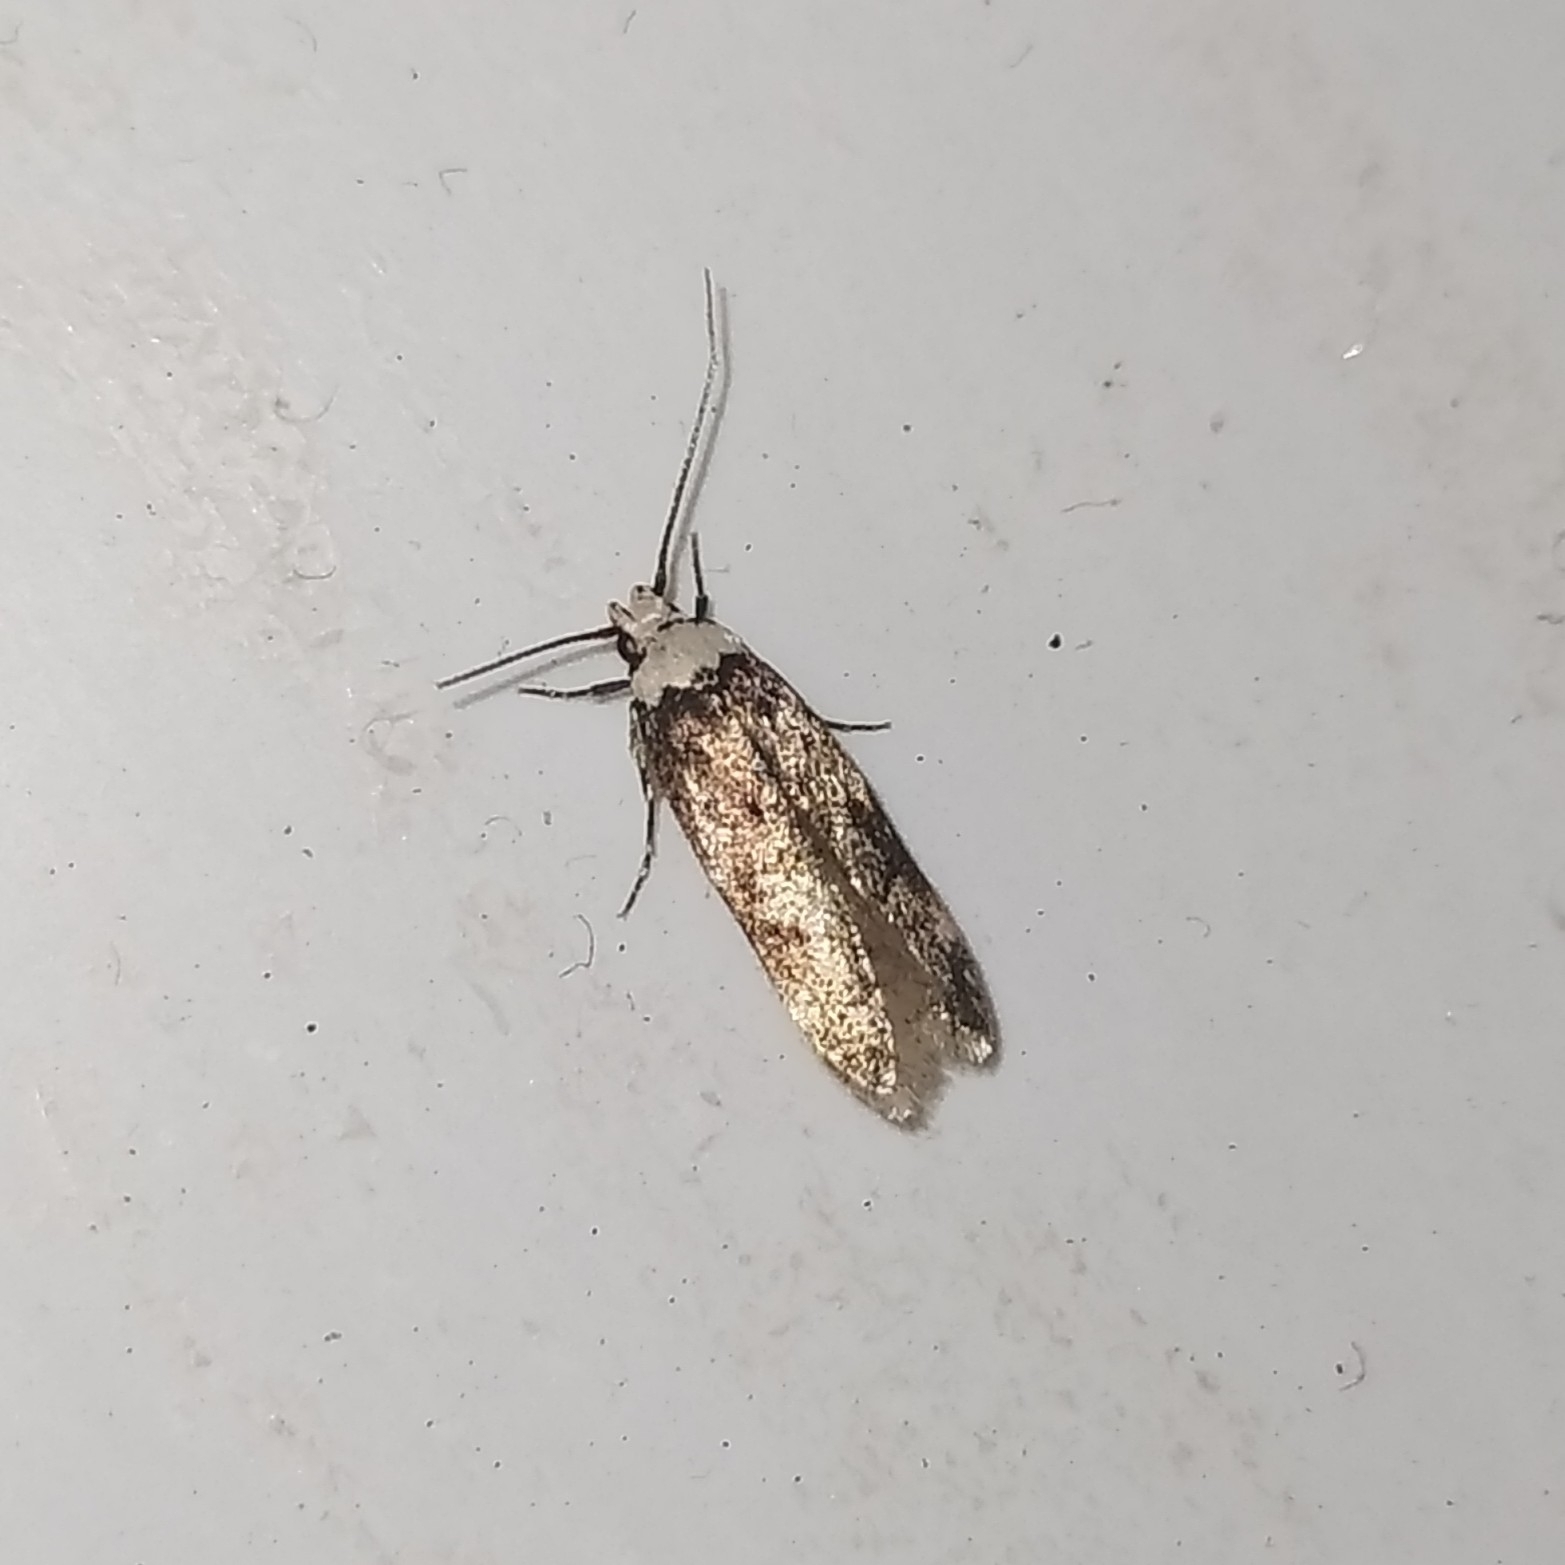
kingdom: Animalia
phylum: Arthropoda
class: Insecta
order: Lepidoptera
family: Oecophoridae
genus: Endrosis
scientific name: Endrosis sarcitrella
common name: White-shouldered house moth
